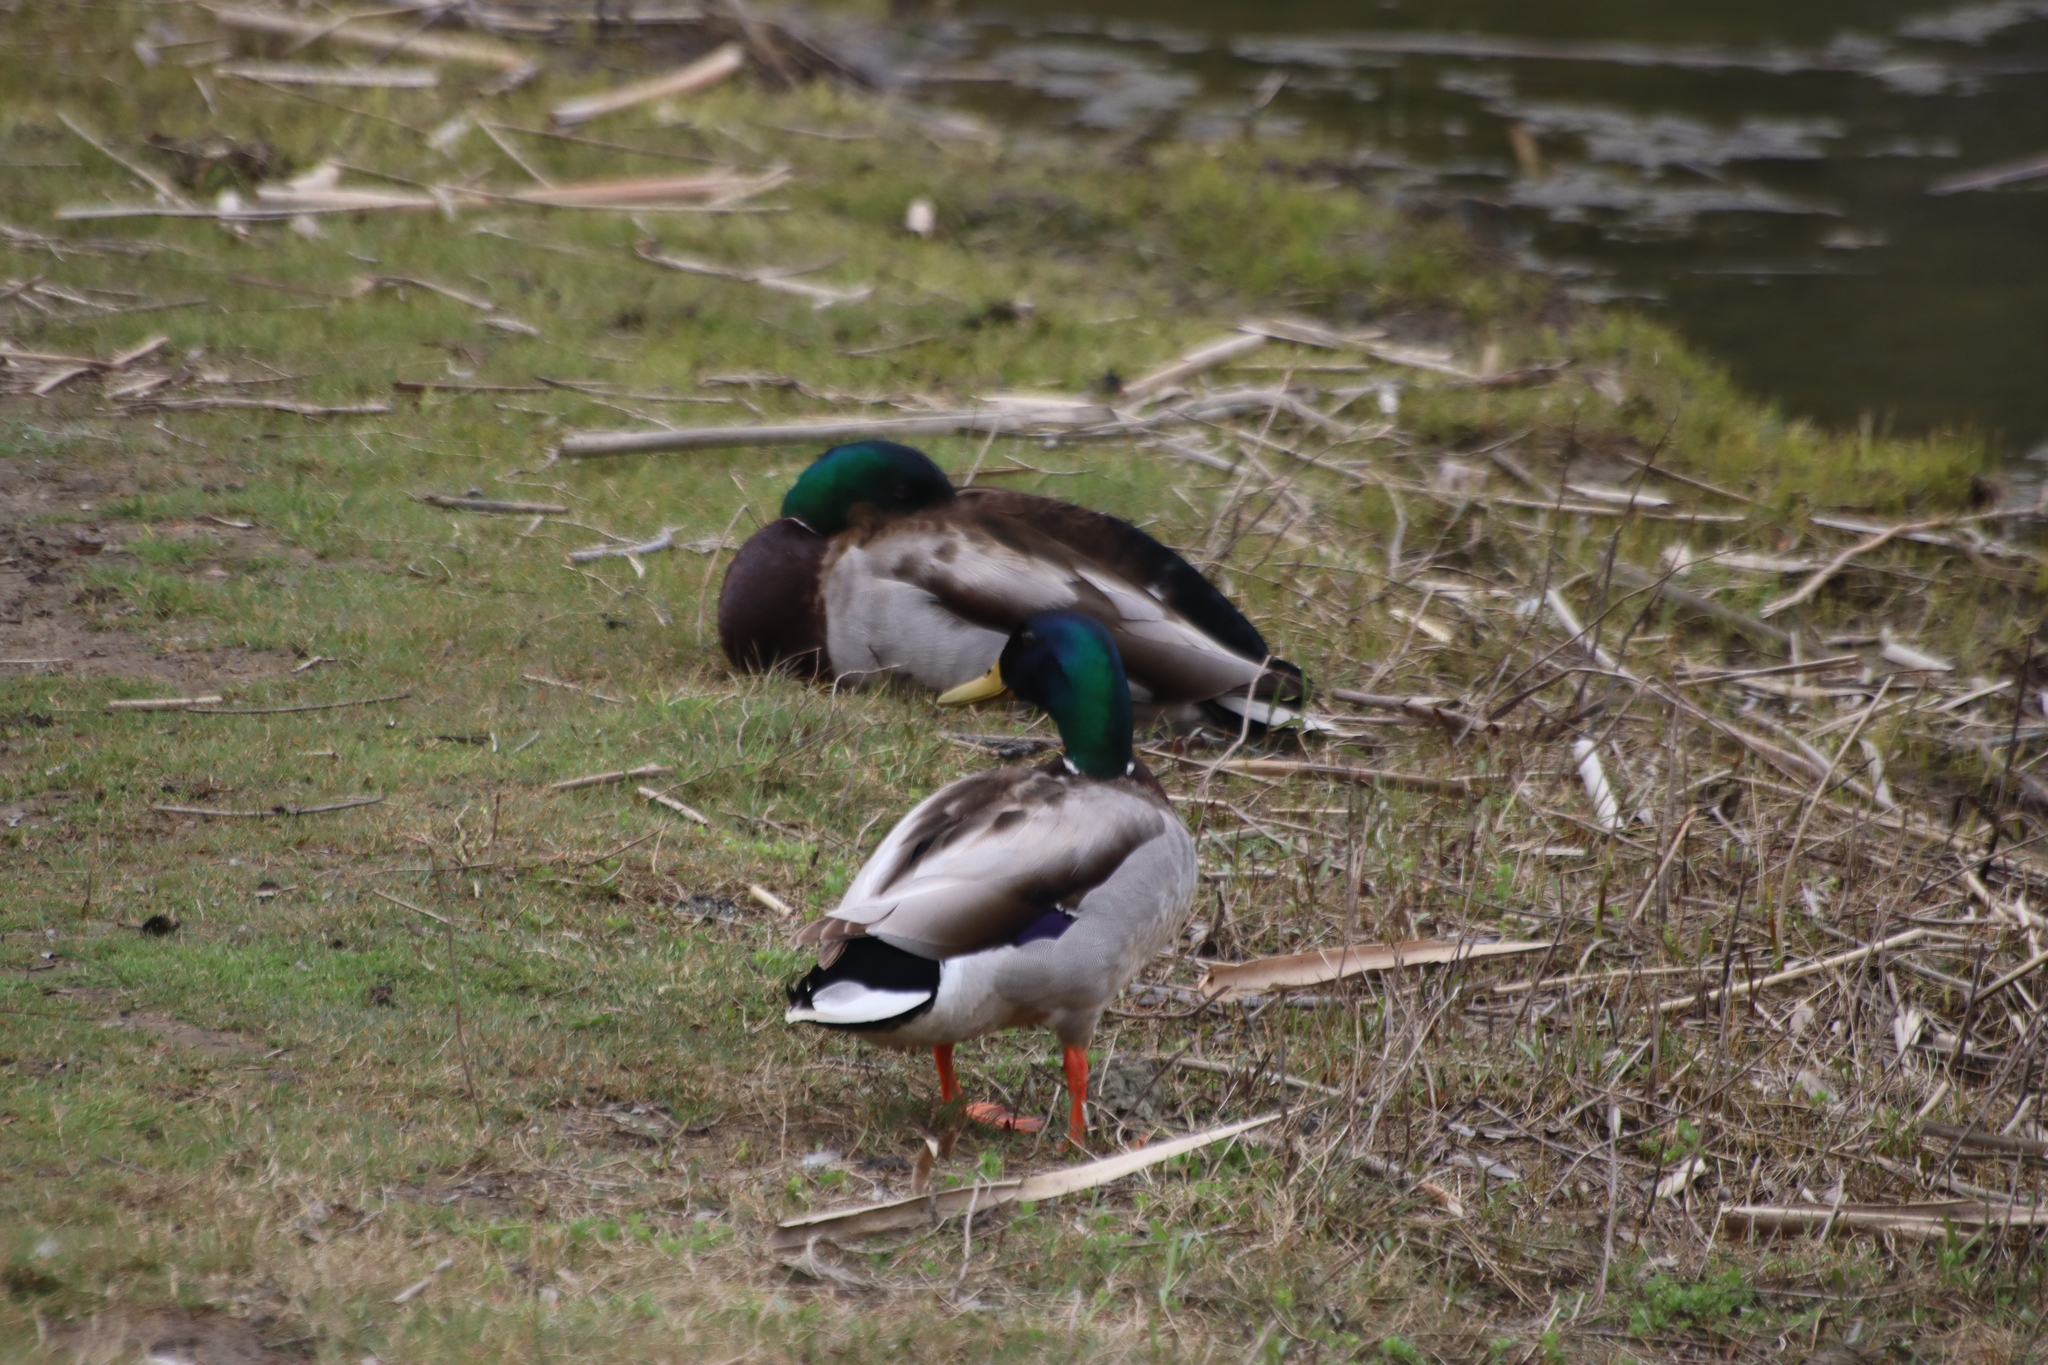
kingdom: Animalia
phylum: Chordata
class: Aves
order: Anseriformes
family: Anatidae
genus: Anas
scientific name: Anas platyrhynchos
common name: Mallard
